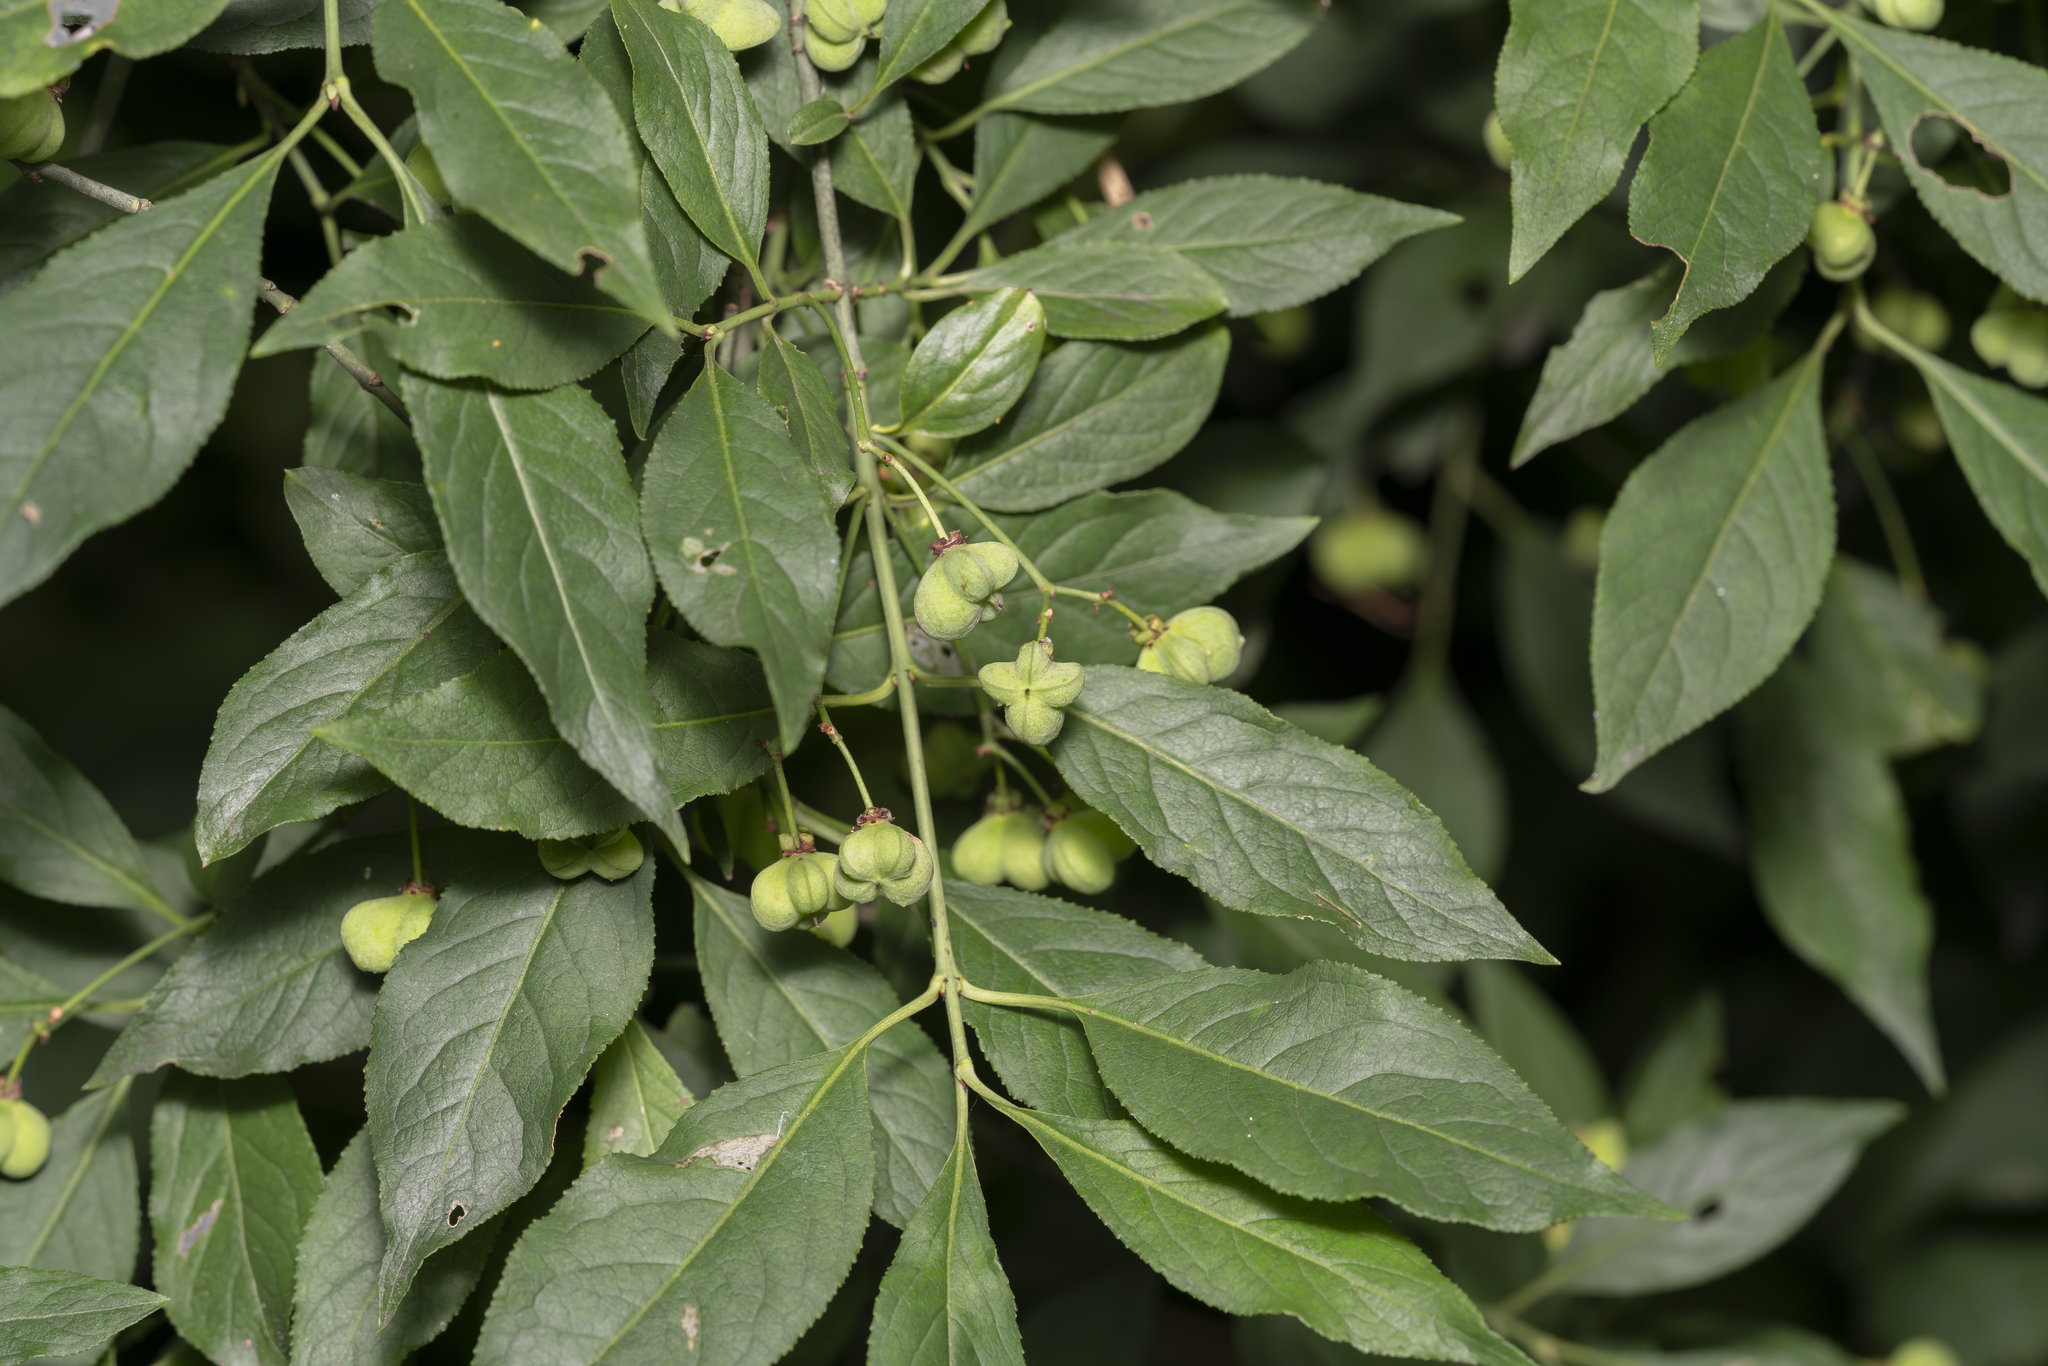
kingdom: Plantae
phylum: Tracheophyta
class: Magnoliopsida
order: Celastrales
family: Celastraceae
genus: Euonymus
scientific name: Euonymus europaeus
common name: Spindle
